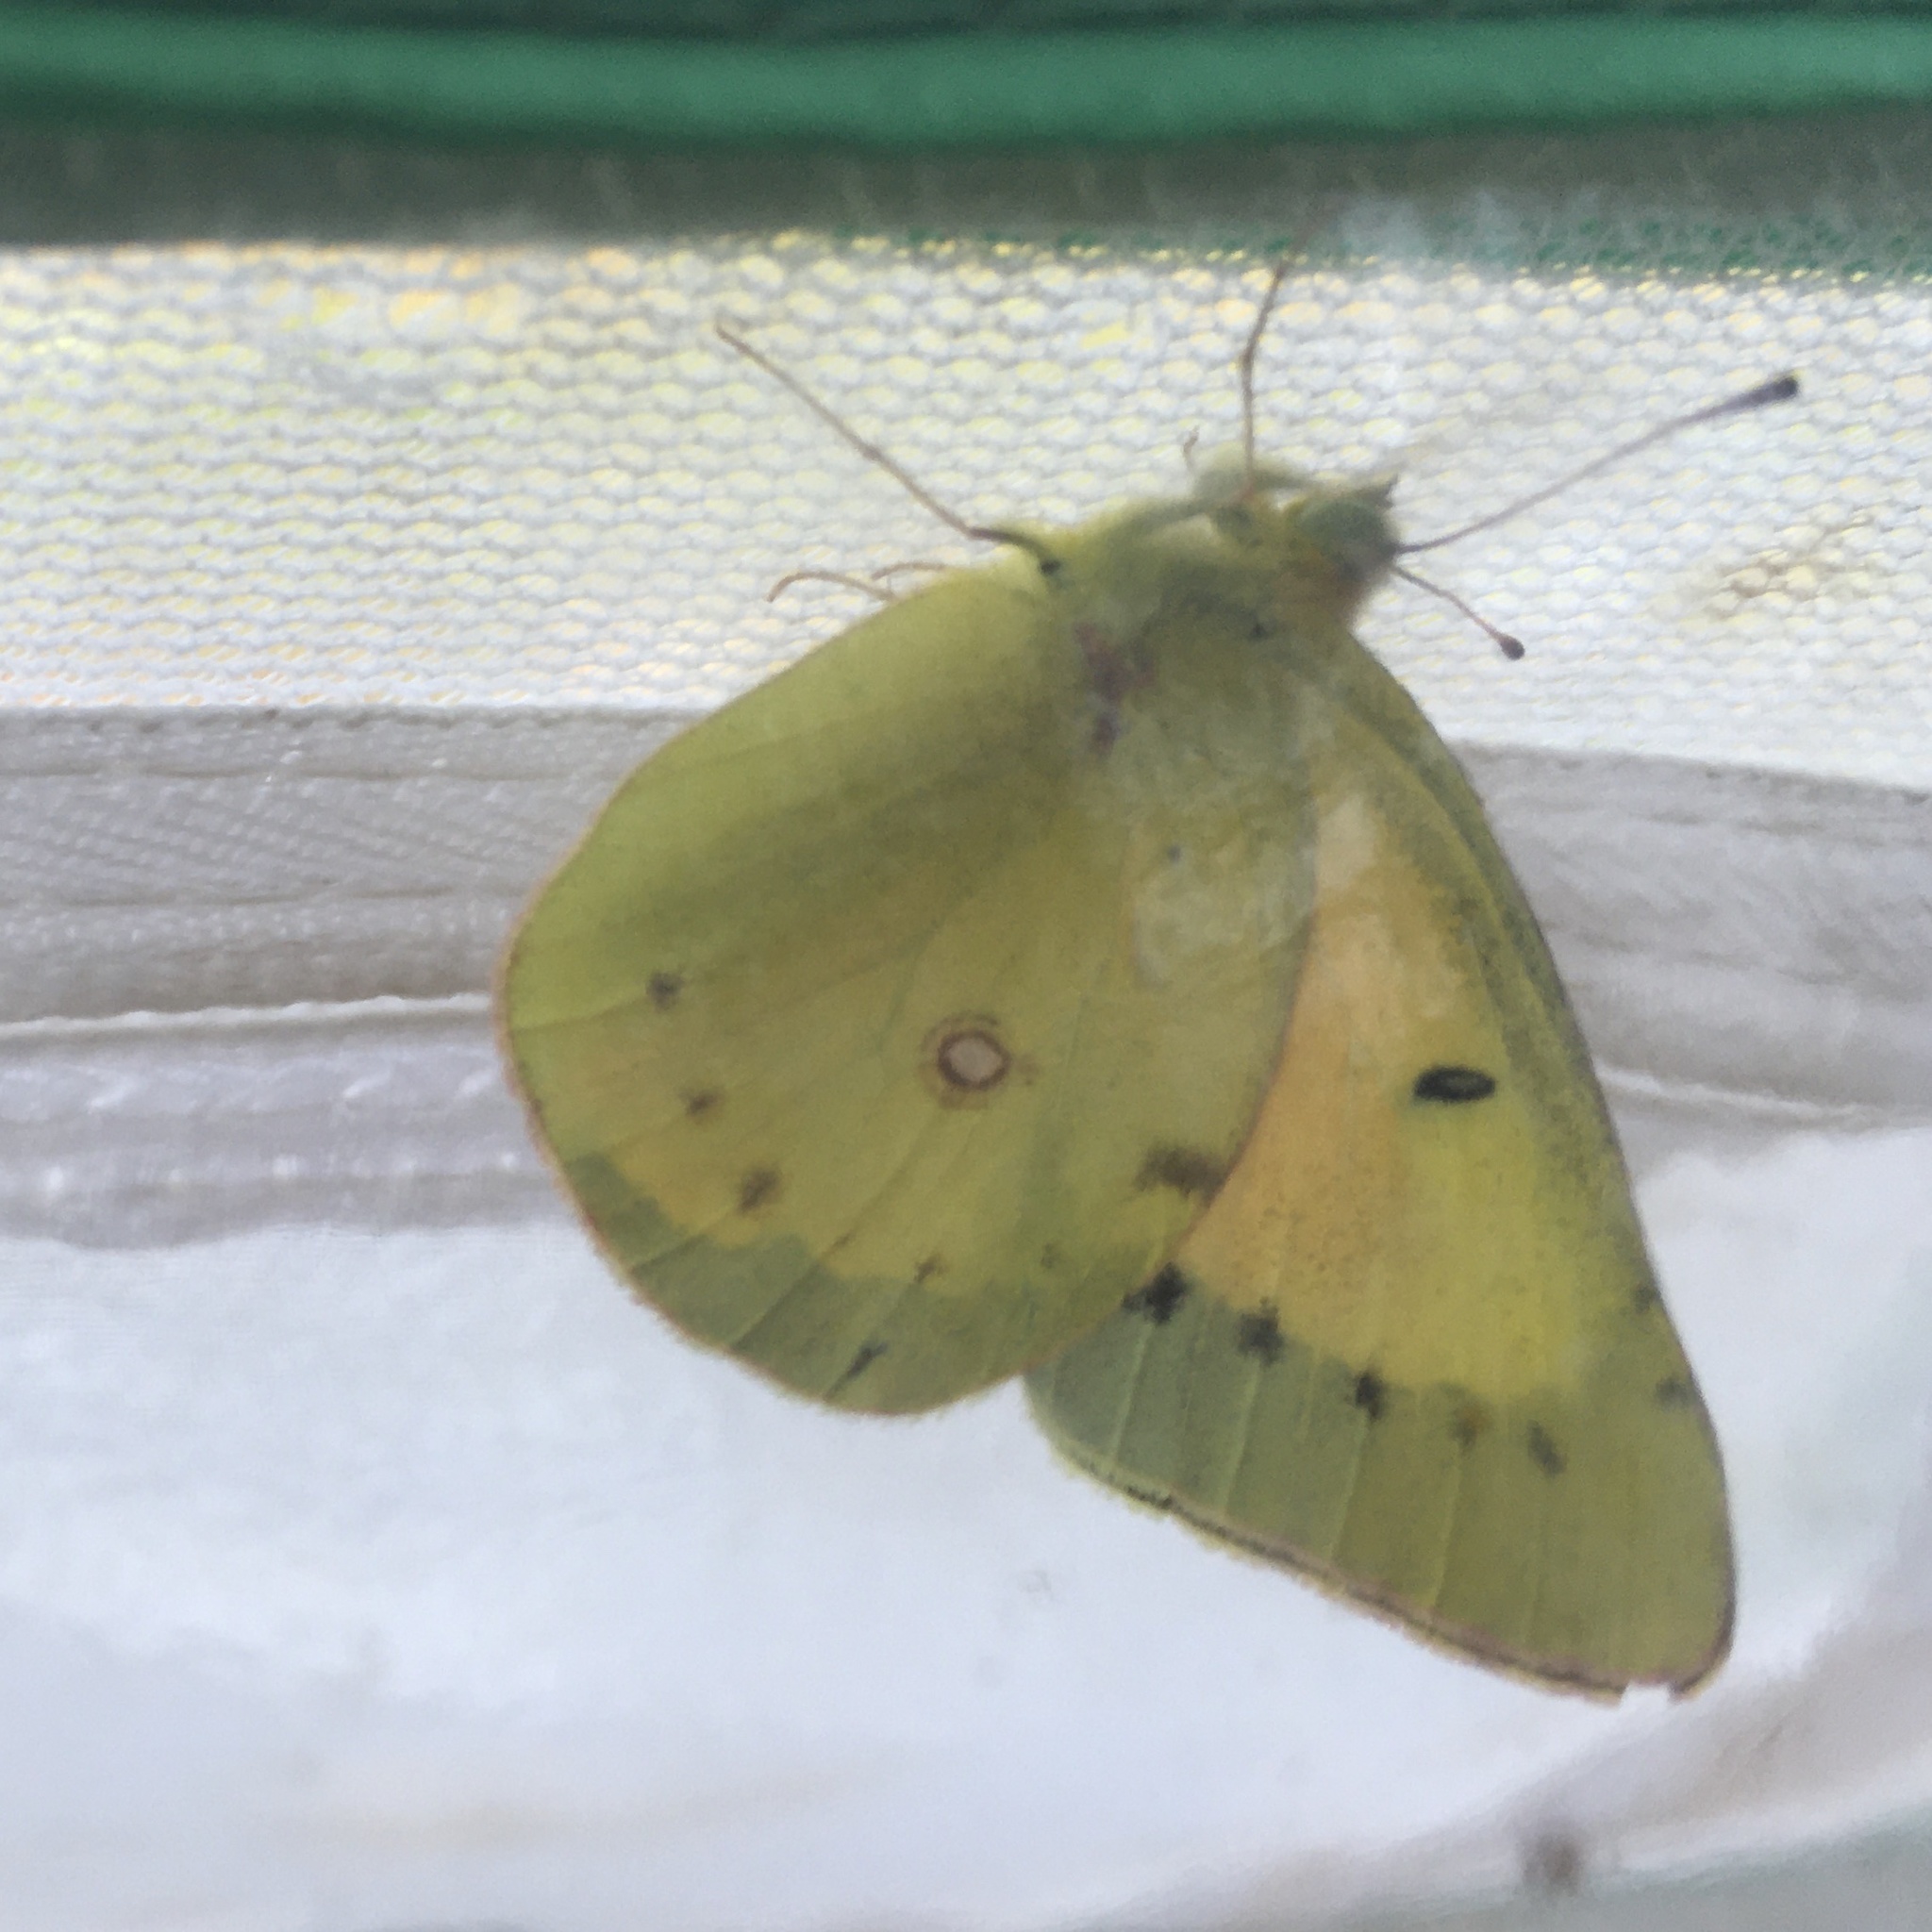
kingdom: Animalia
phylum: Arthropoda
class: Insecta
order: Lepidoptera
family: Pieridae
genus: Colias
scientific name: Colias eurytheme
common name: Alfalfa butterfly
